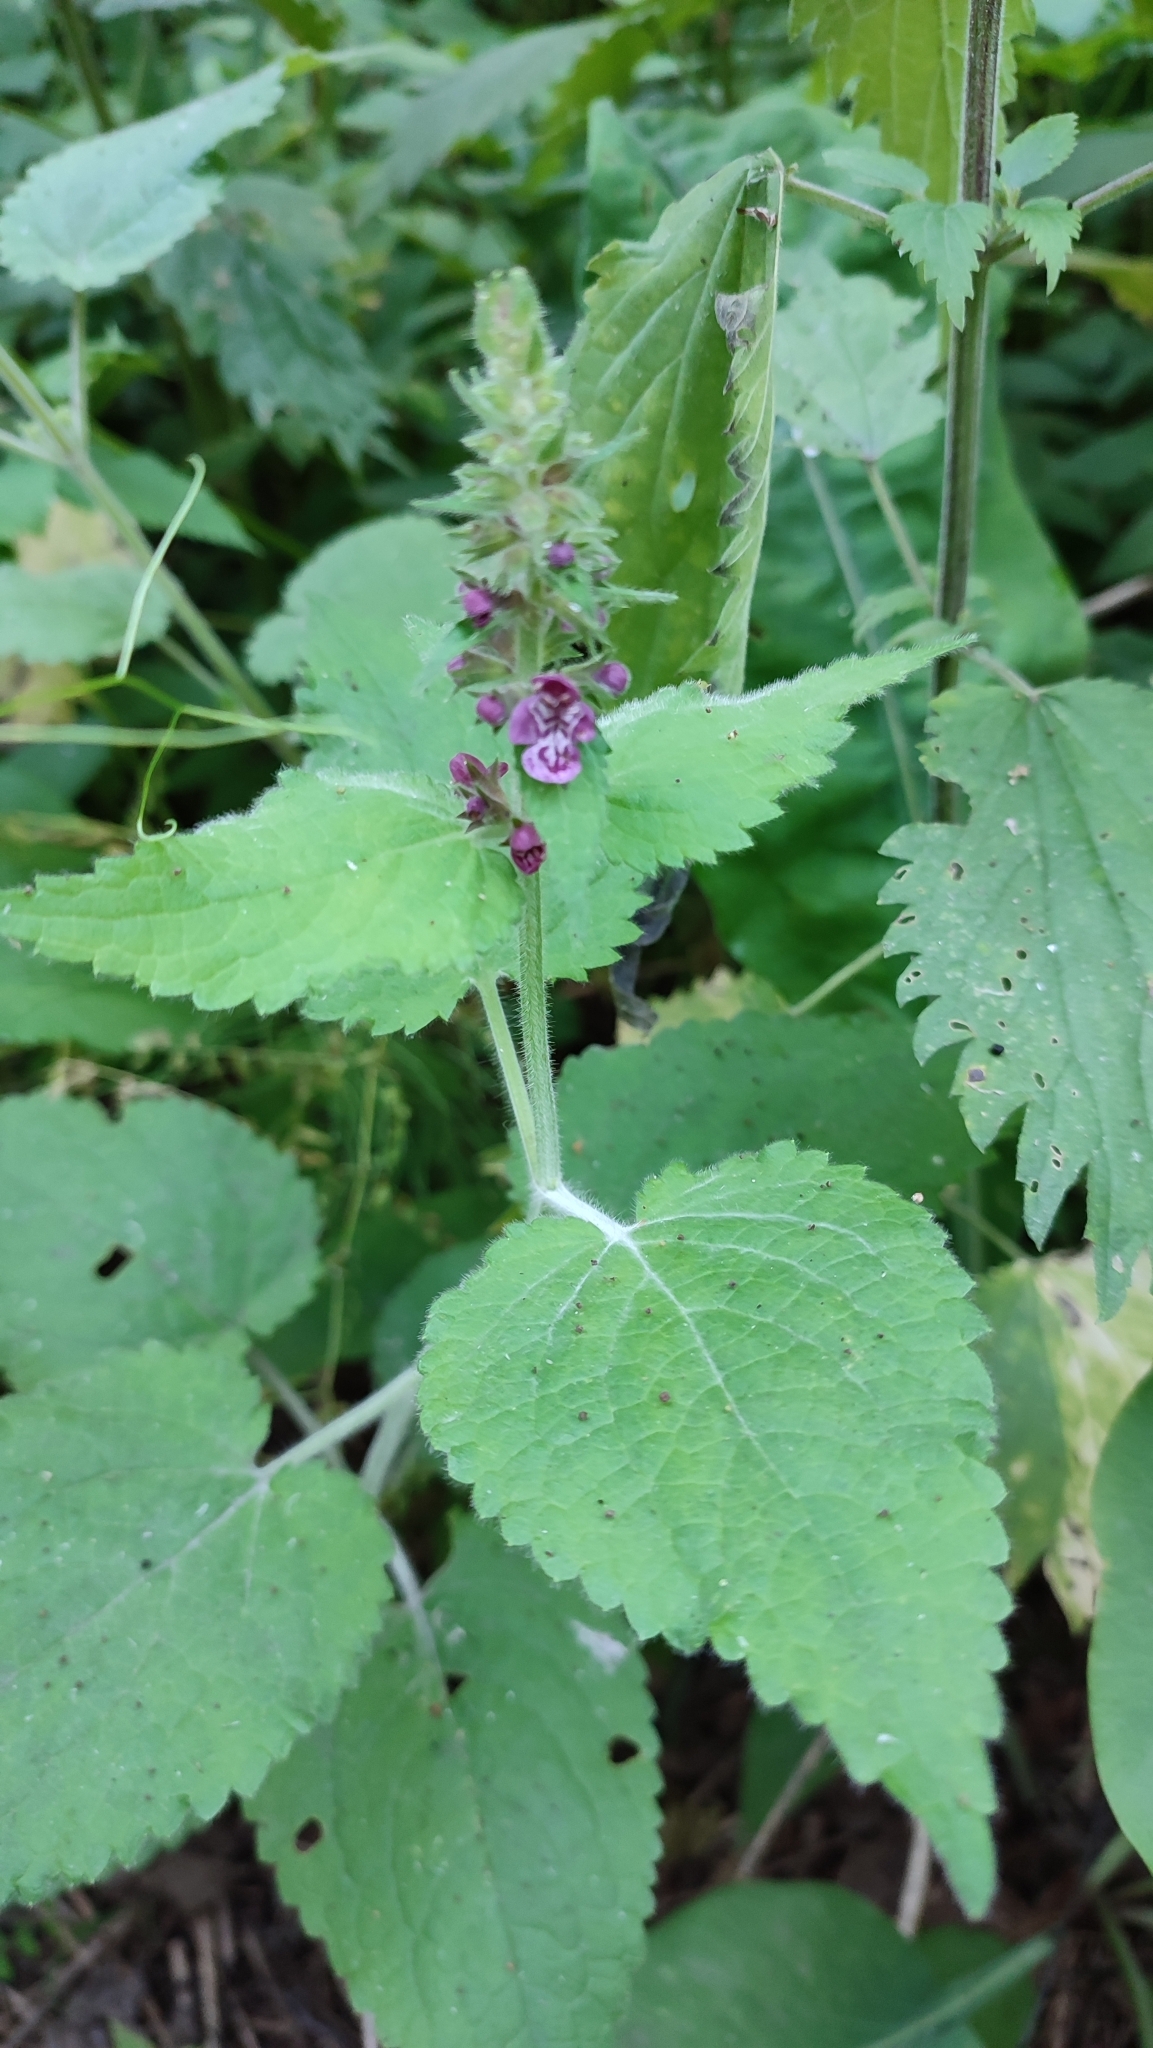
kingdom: Plantae
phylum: Tracheophyta
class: Magnoliopsida
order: Lamiales
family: Lamiaceae
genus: Stachys
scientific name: Stachys sylvatica
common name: Hedge woundwort
